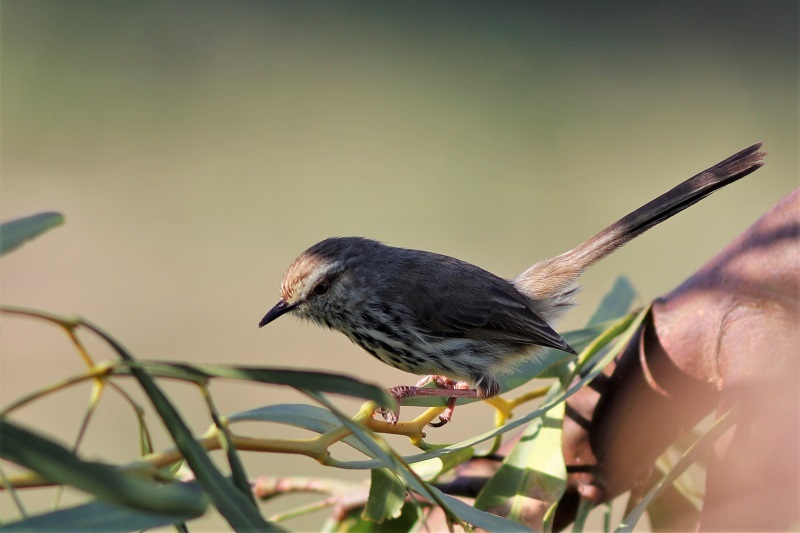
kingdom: Animalia
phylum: Chordata
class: Aves
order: Passeriformes
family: Cisticolidae
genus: Prinia
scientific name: Prinia maculosa
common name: Karoo prinia
